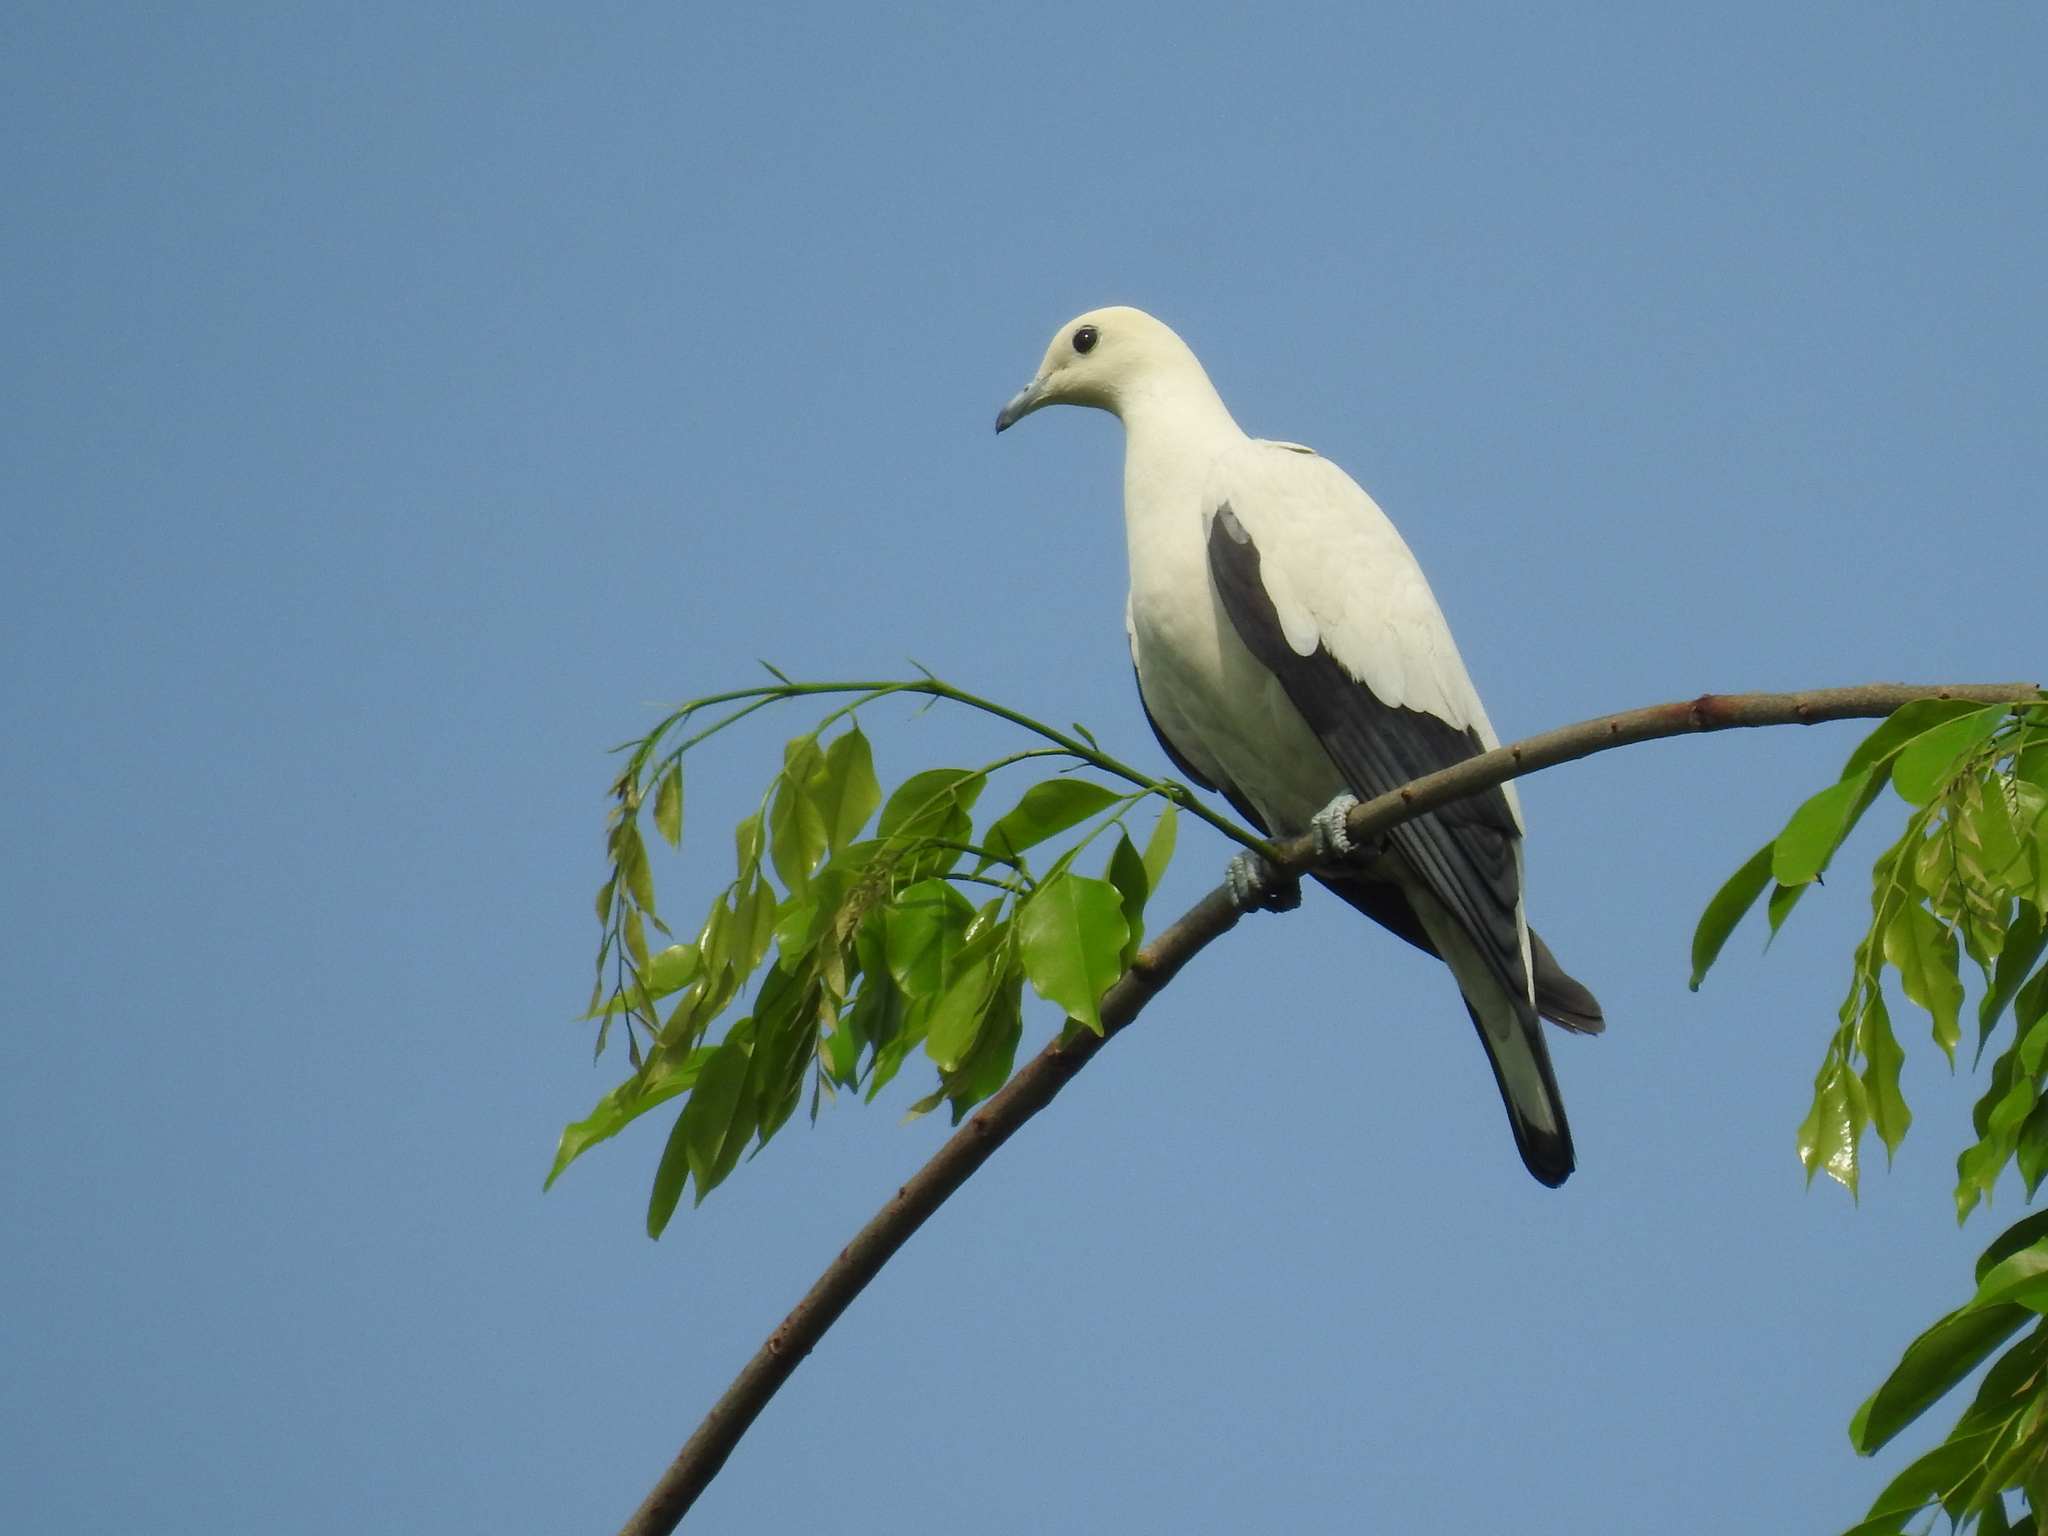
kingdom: Animalia
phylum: Chordata
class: Aves
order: Columbiformes
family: Columbidae
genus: Ducula
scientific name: Ducula bicolor
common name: Pied imperial pigeon
